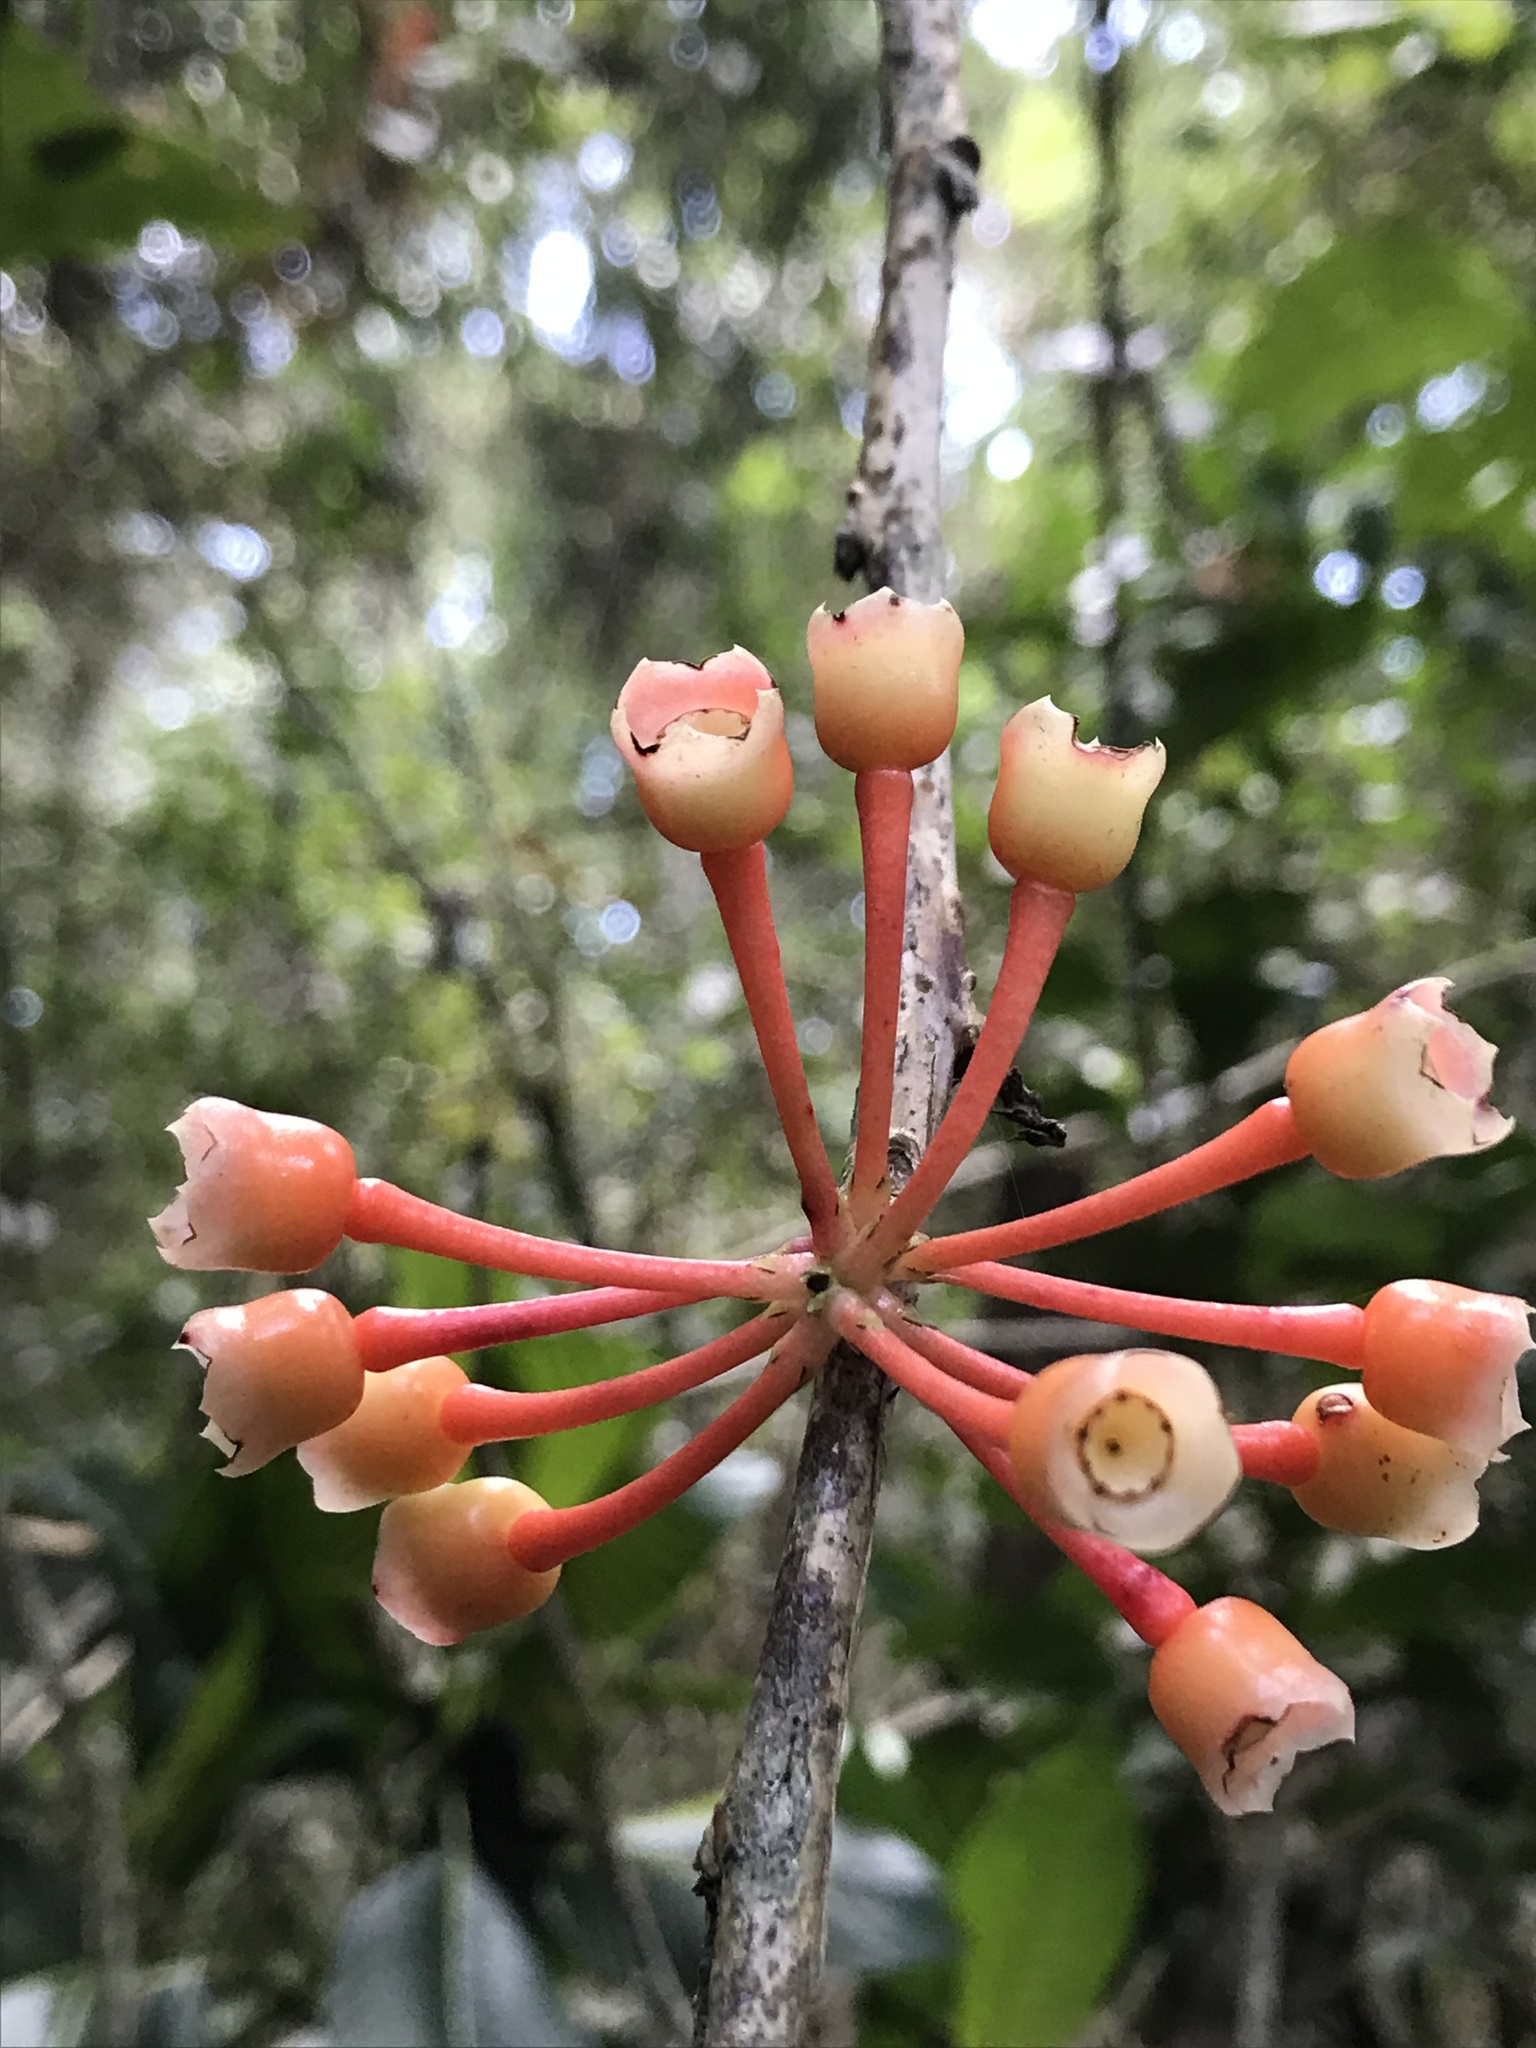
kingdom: Plantae
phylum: Tracheophyta
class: Magnoliopsida
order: Ericales
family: Ericaceae
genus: Psammisia
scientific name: Psammisia graebneriana
